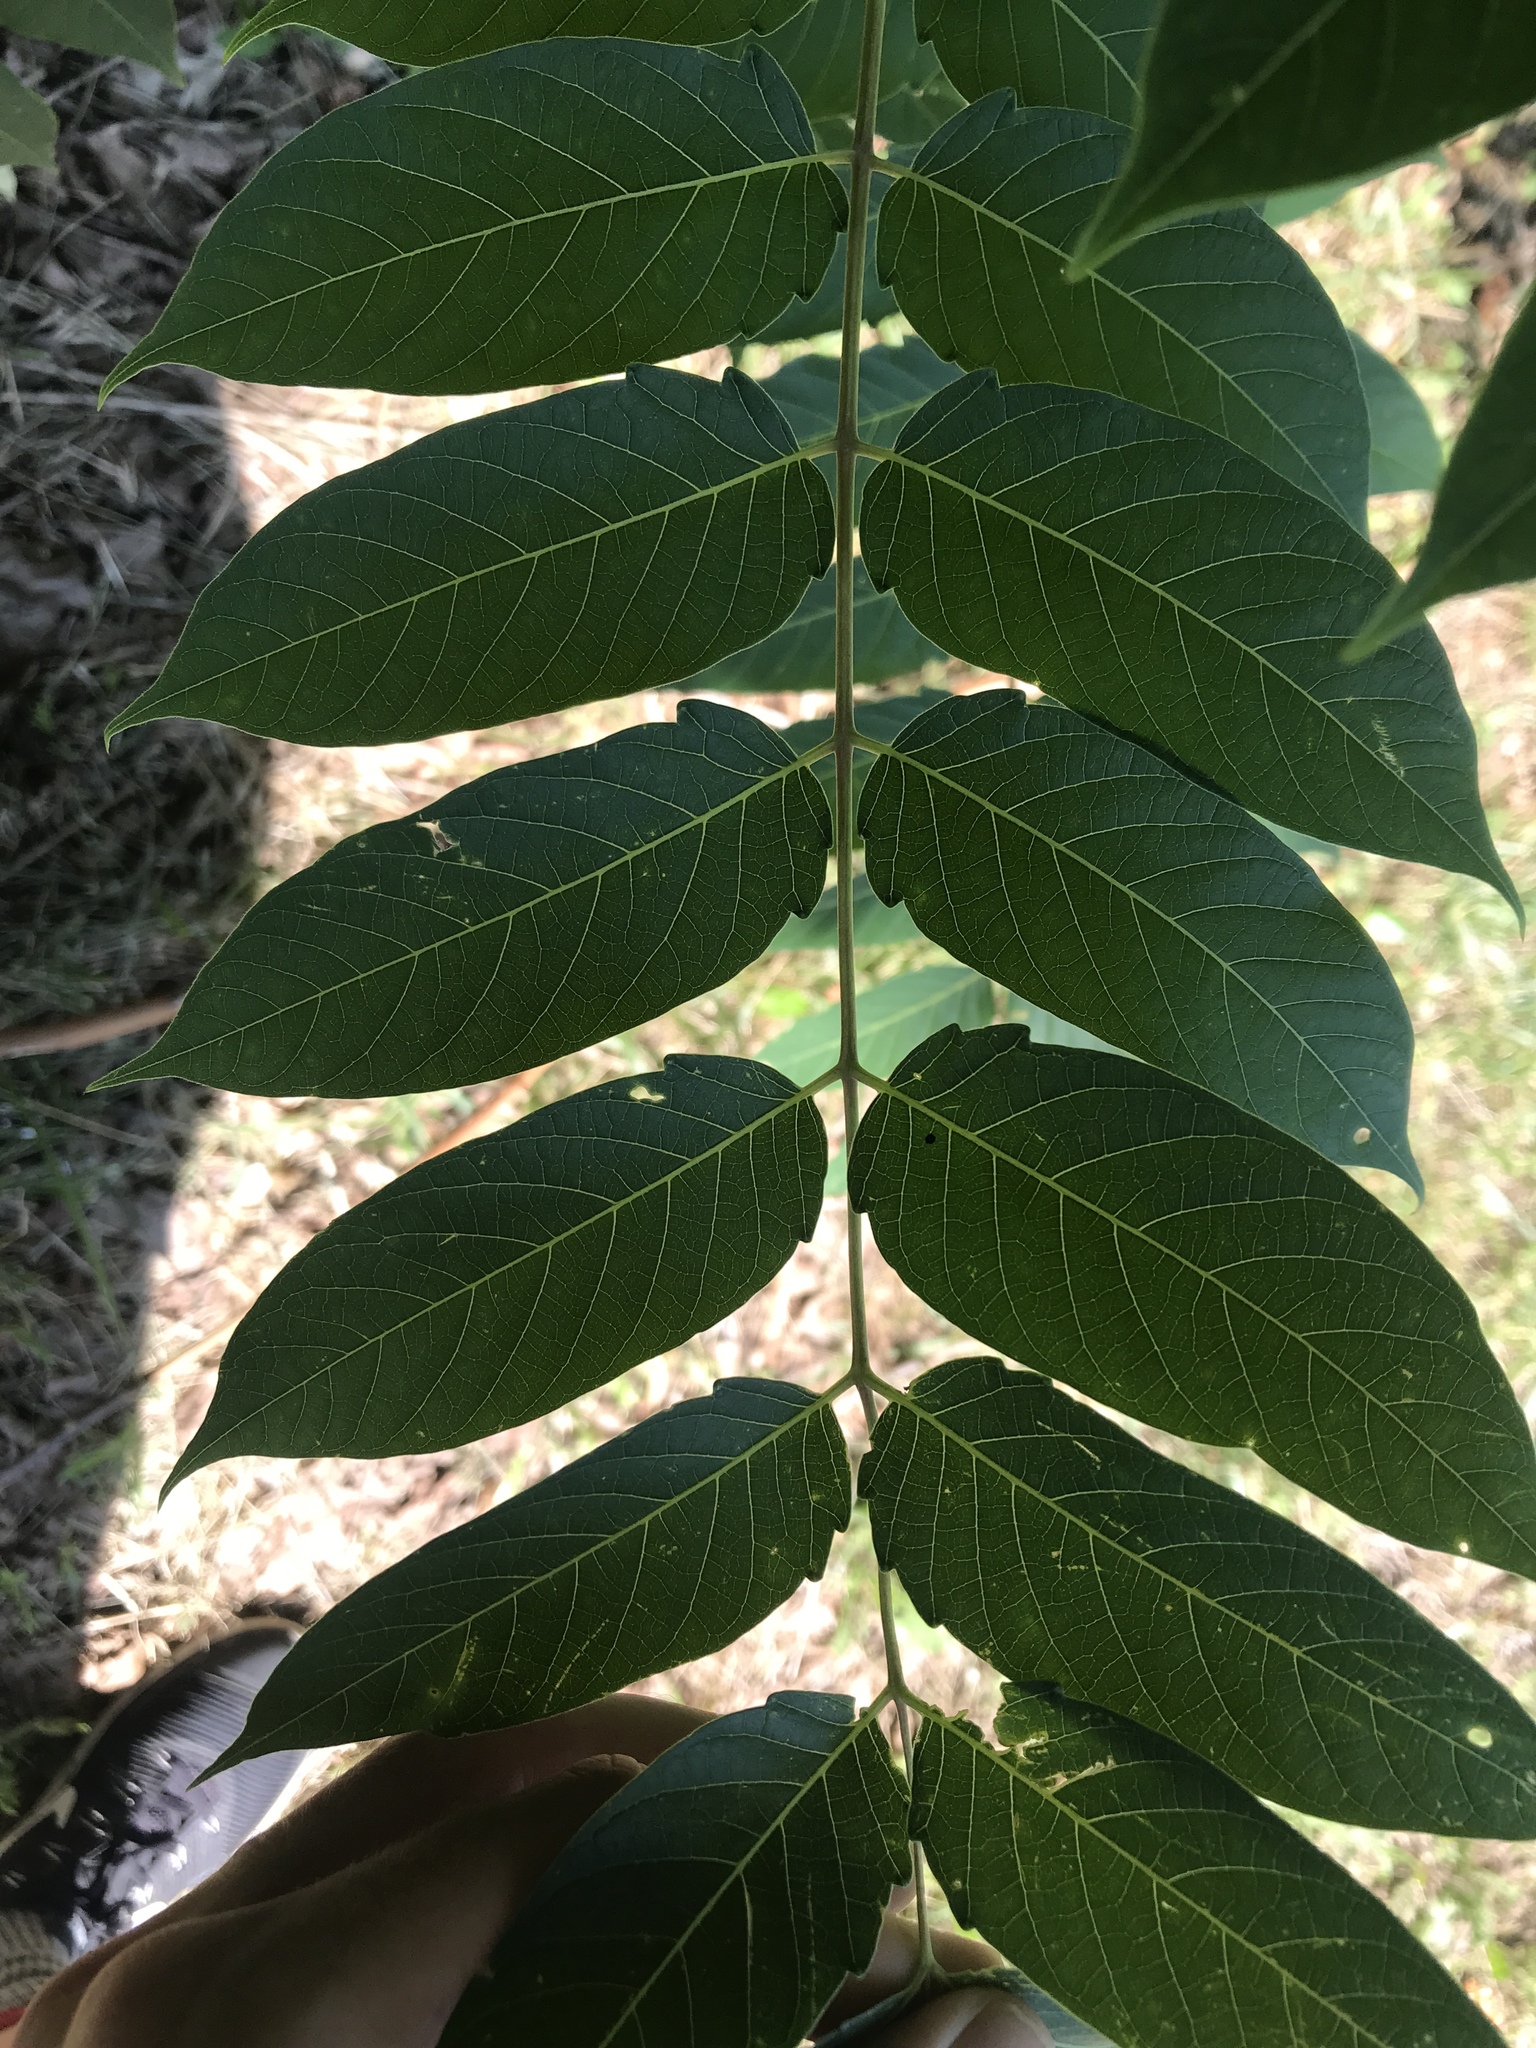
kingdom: Plantae
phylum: Tracheophyta
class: Magnoliopsida
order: Sapindales
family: Simaroubaceae
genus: Ailanthus
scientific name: Ailanthus altissima
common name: Tree-of-heaven
